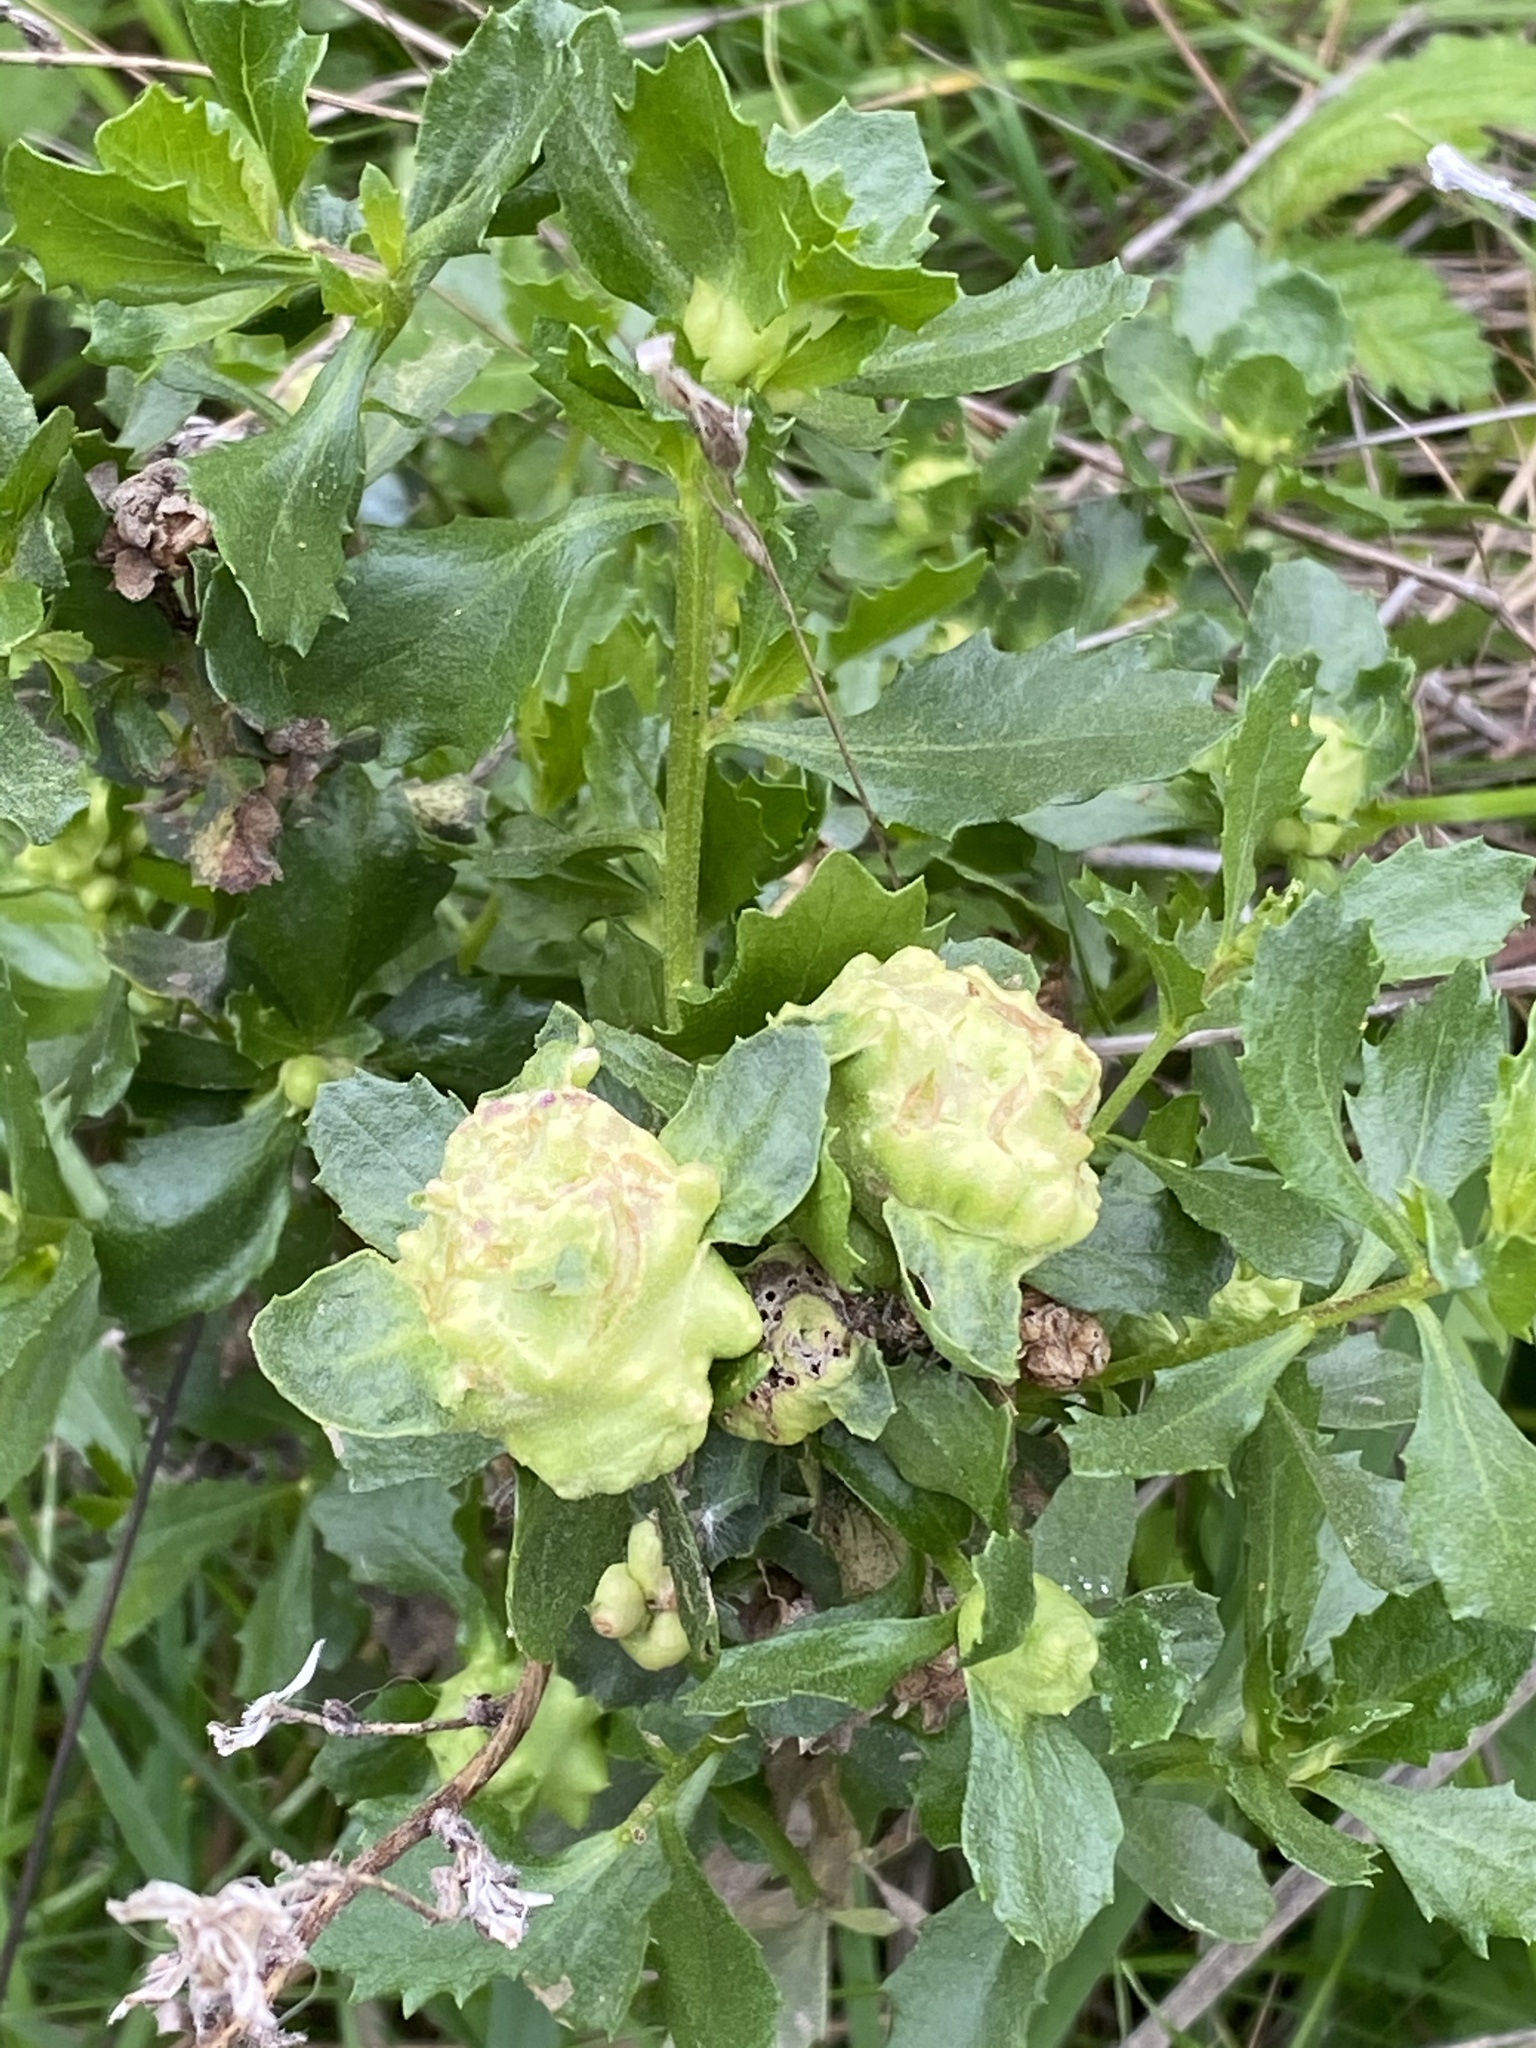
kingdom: Animalia
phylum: Arthropoda
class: Insecta
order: Diptera
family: Cecidomyiidae
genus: Rhopalomyia
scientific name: Rhopalomyia californica
